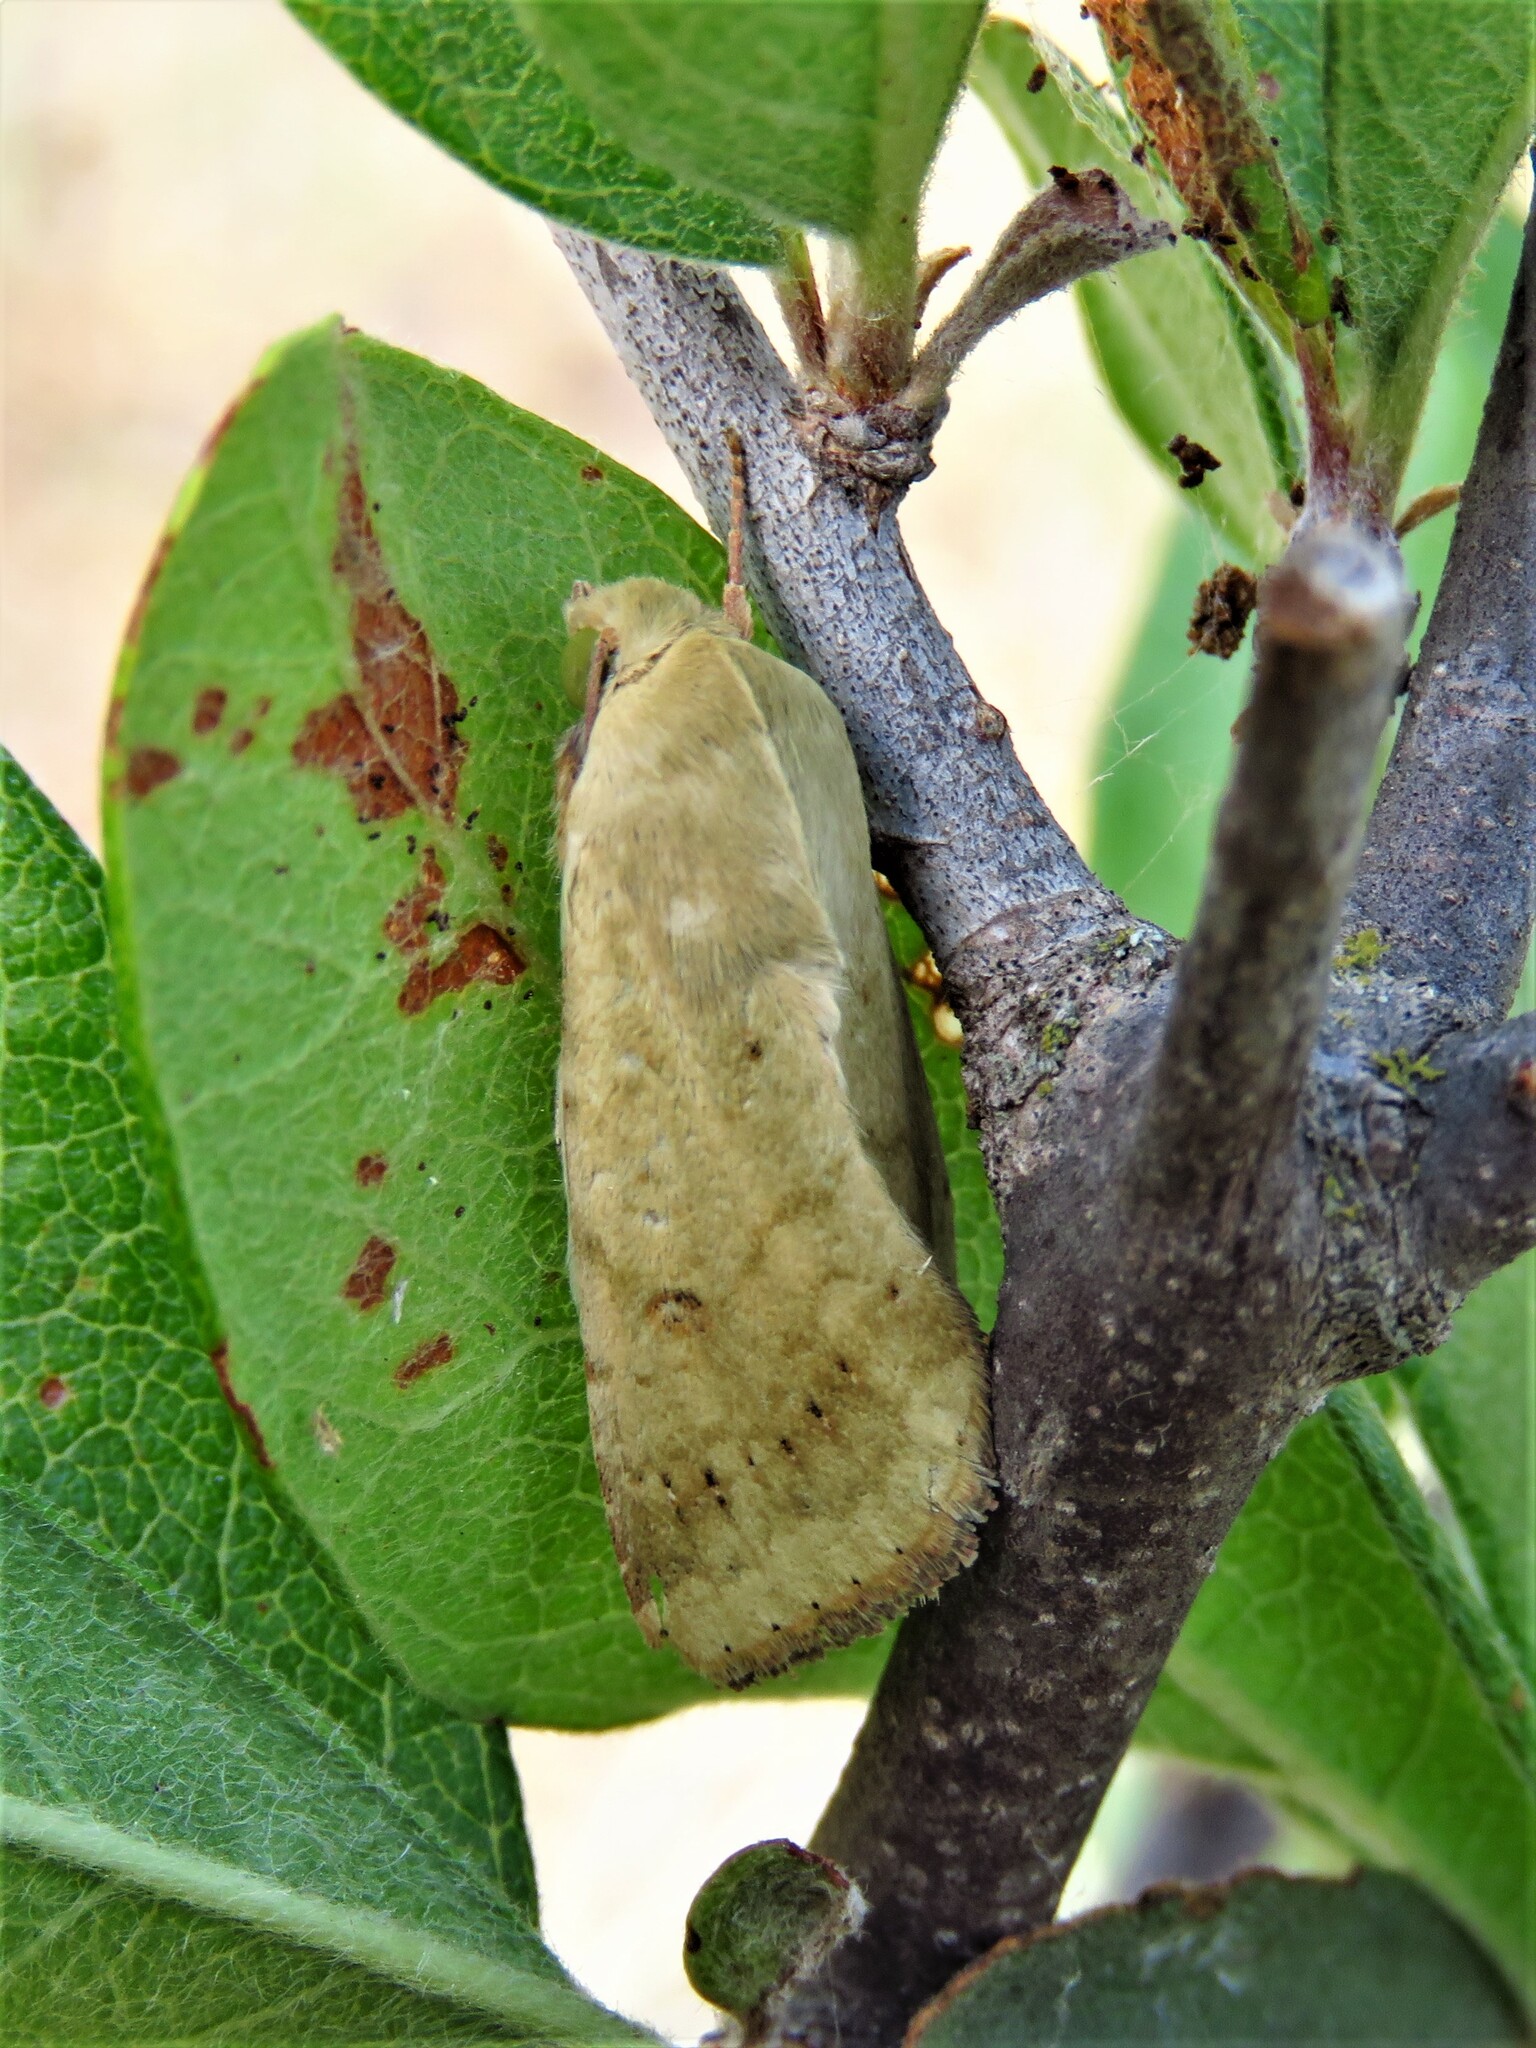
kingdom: Animalia
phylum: Arthropoda
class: Insecta
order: Lepidoptera
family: Noctuidae
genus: Helicoverpa
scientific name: Helicoverpa zea
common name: Bollworm
